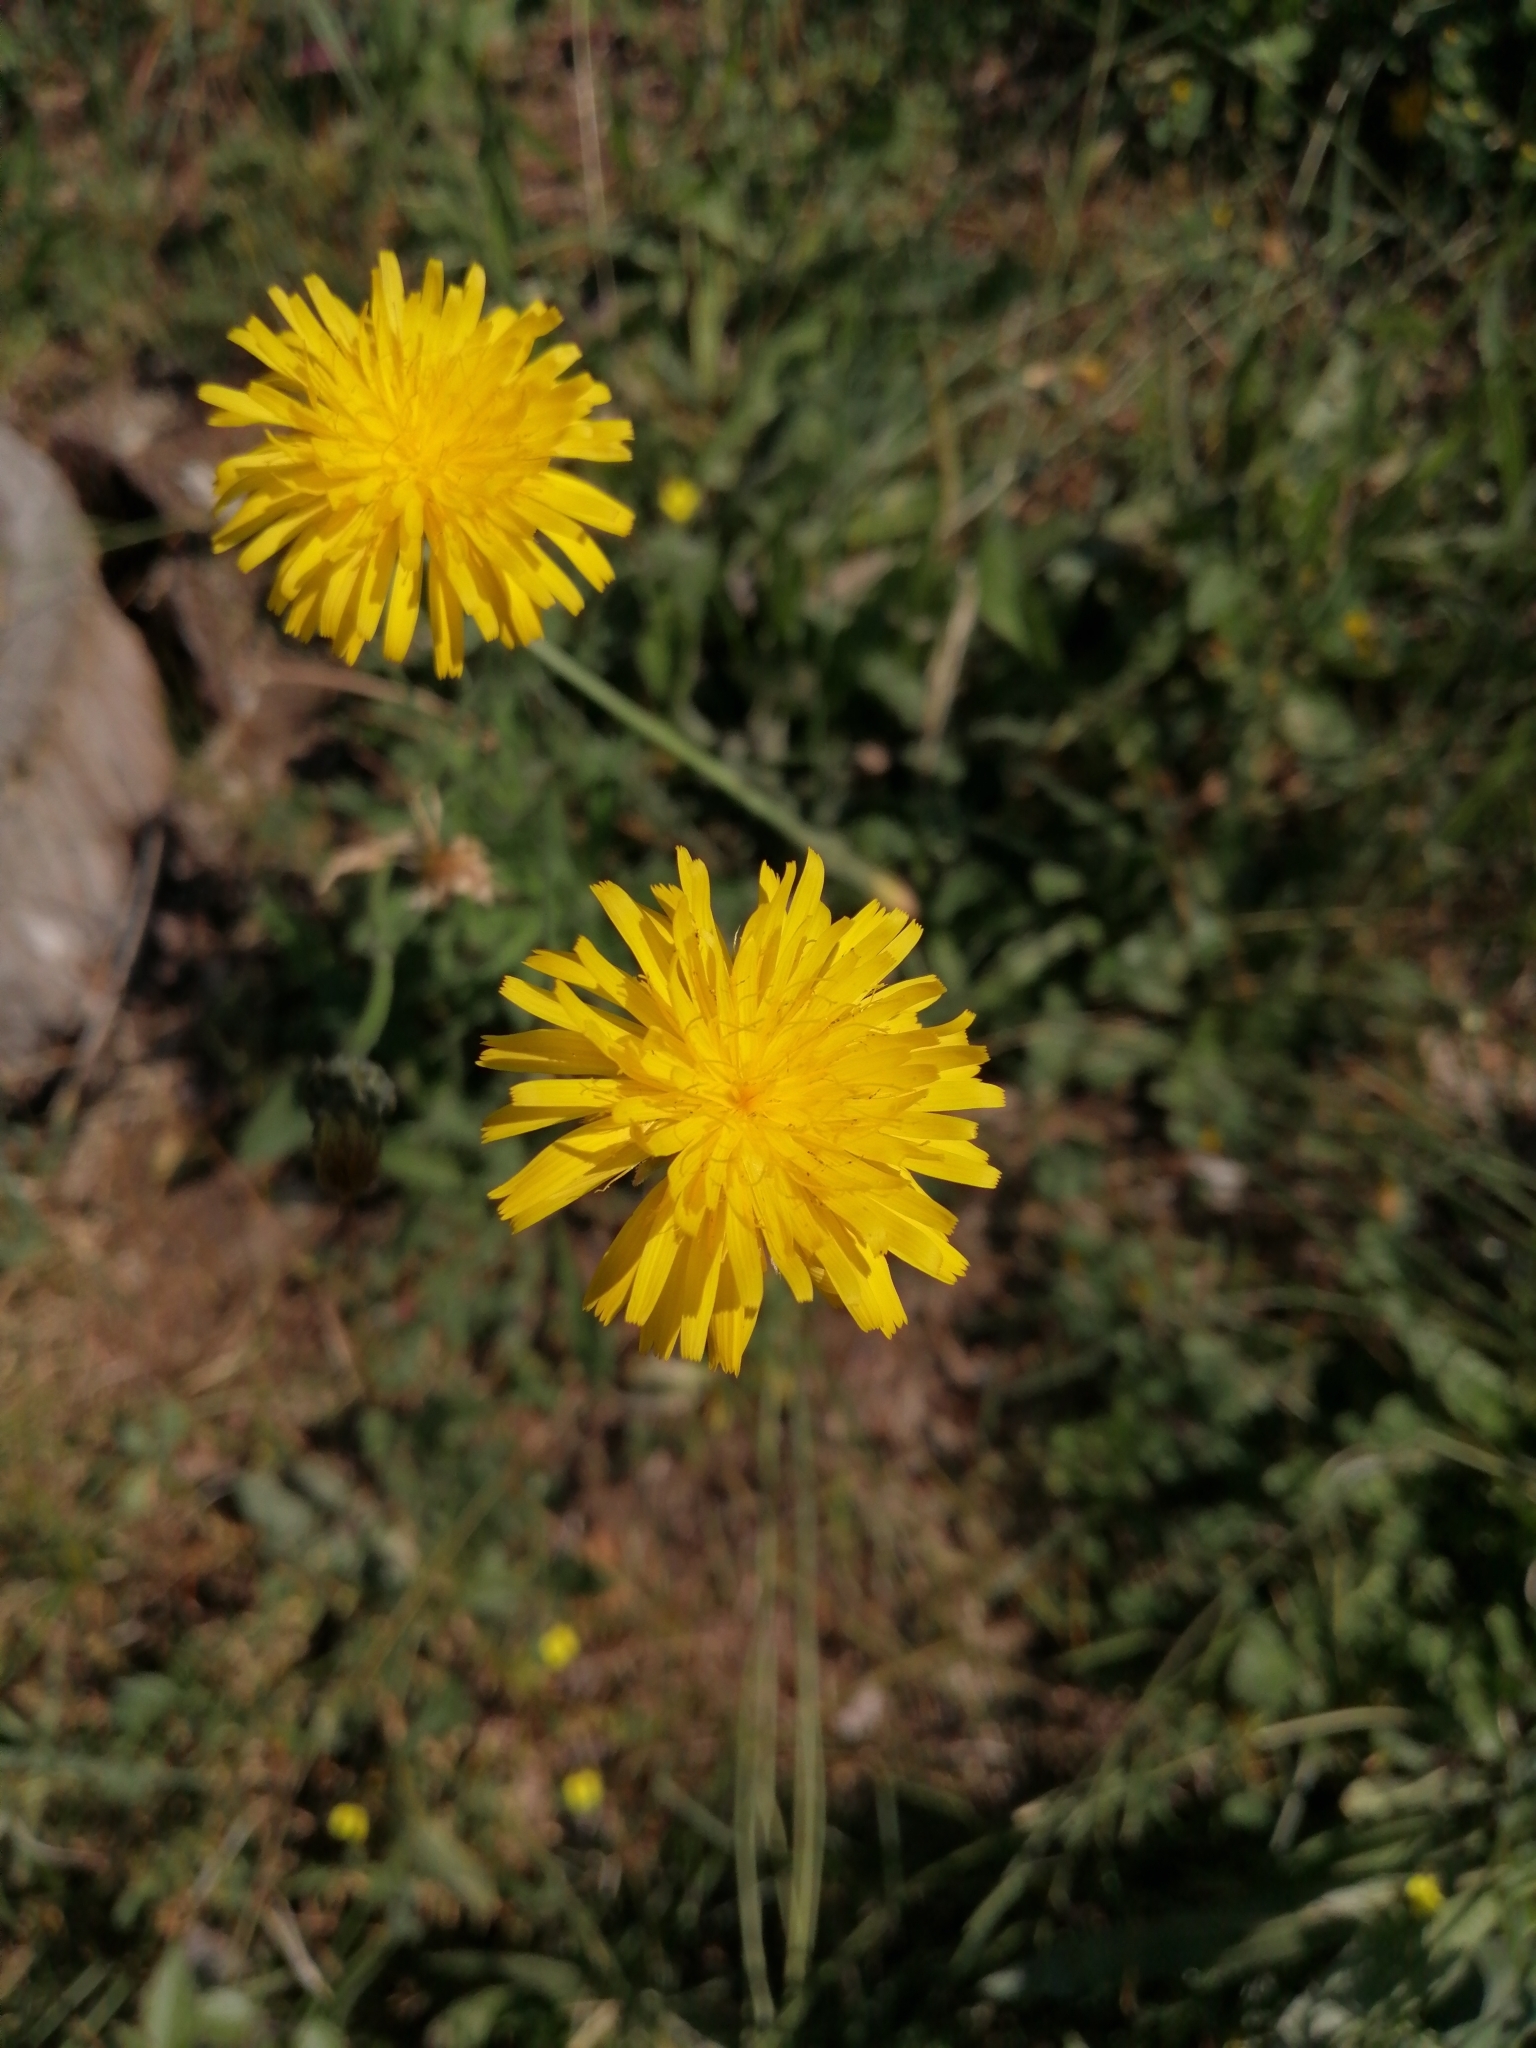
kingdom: Plantae
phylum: Tracheophyta
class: Magnoliopsida
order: Asterales
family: Asteraceae
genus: Hypochaeris
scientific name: Hypochaeris radicata
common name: Flatweed
